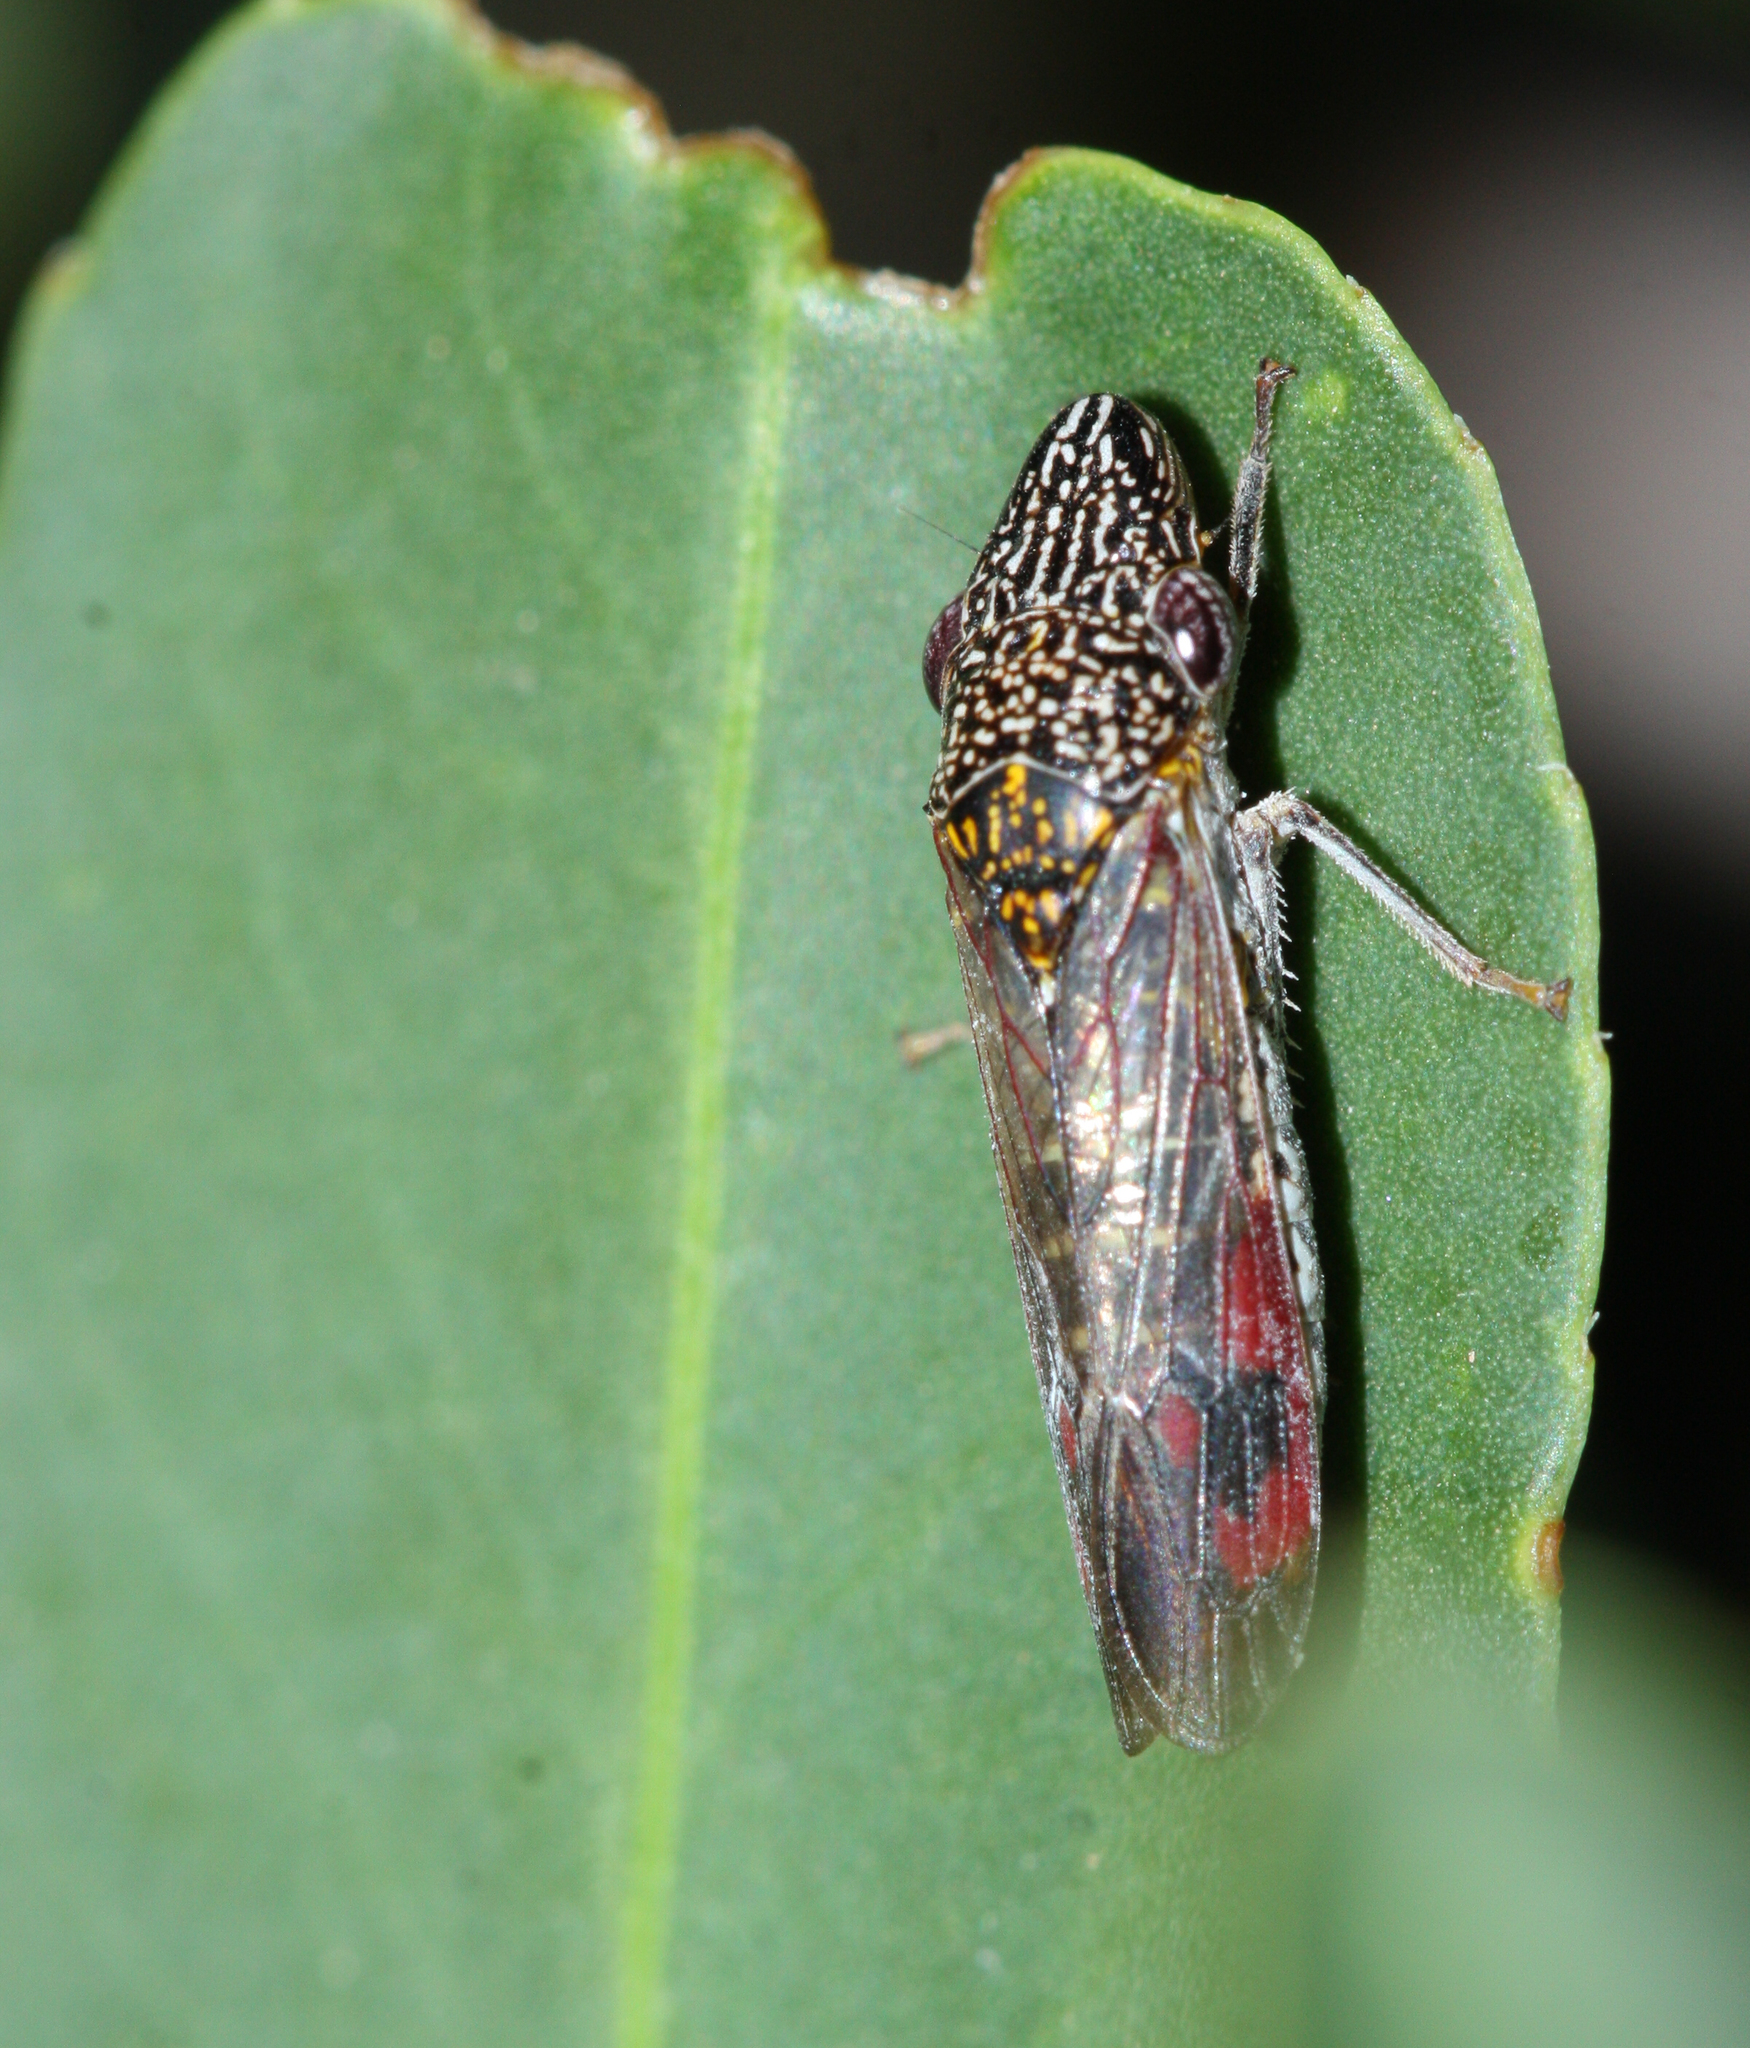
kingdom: Animalia
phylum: Arthropoda
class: Insecta
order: Hemiptera
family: Cicadellidae
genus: Homalodisca
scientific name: Homalodisca liturata
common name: Lacertate sharpshooter
